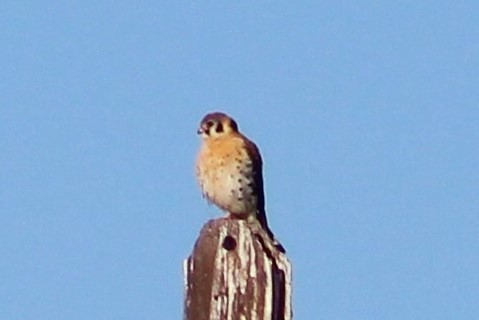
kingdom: Animalia
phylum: Chordata
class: Aves
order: Falconiformes
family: Falconidae
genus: Falco
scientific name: Falco sparverius
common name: American kestrel
